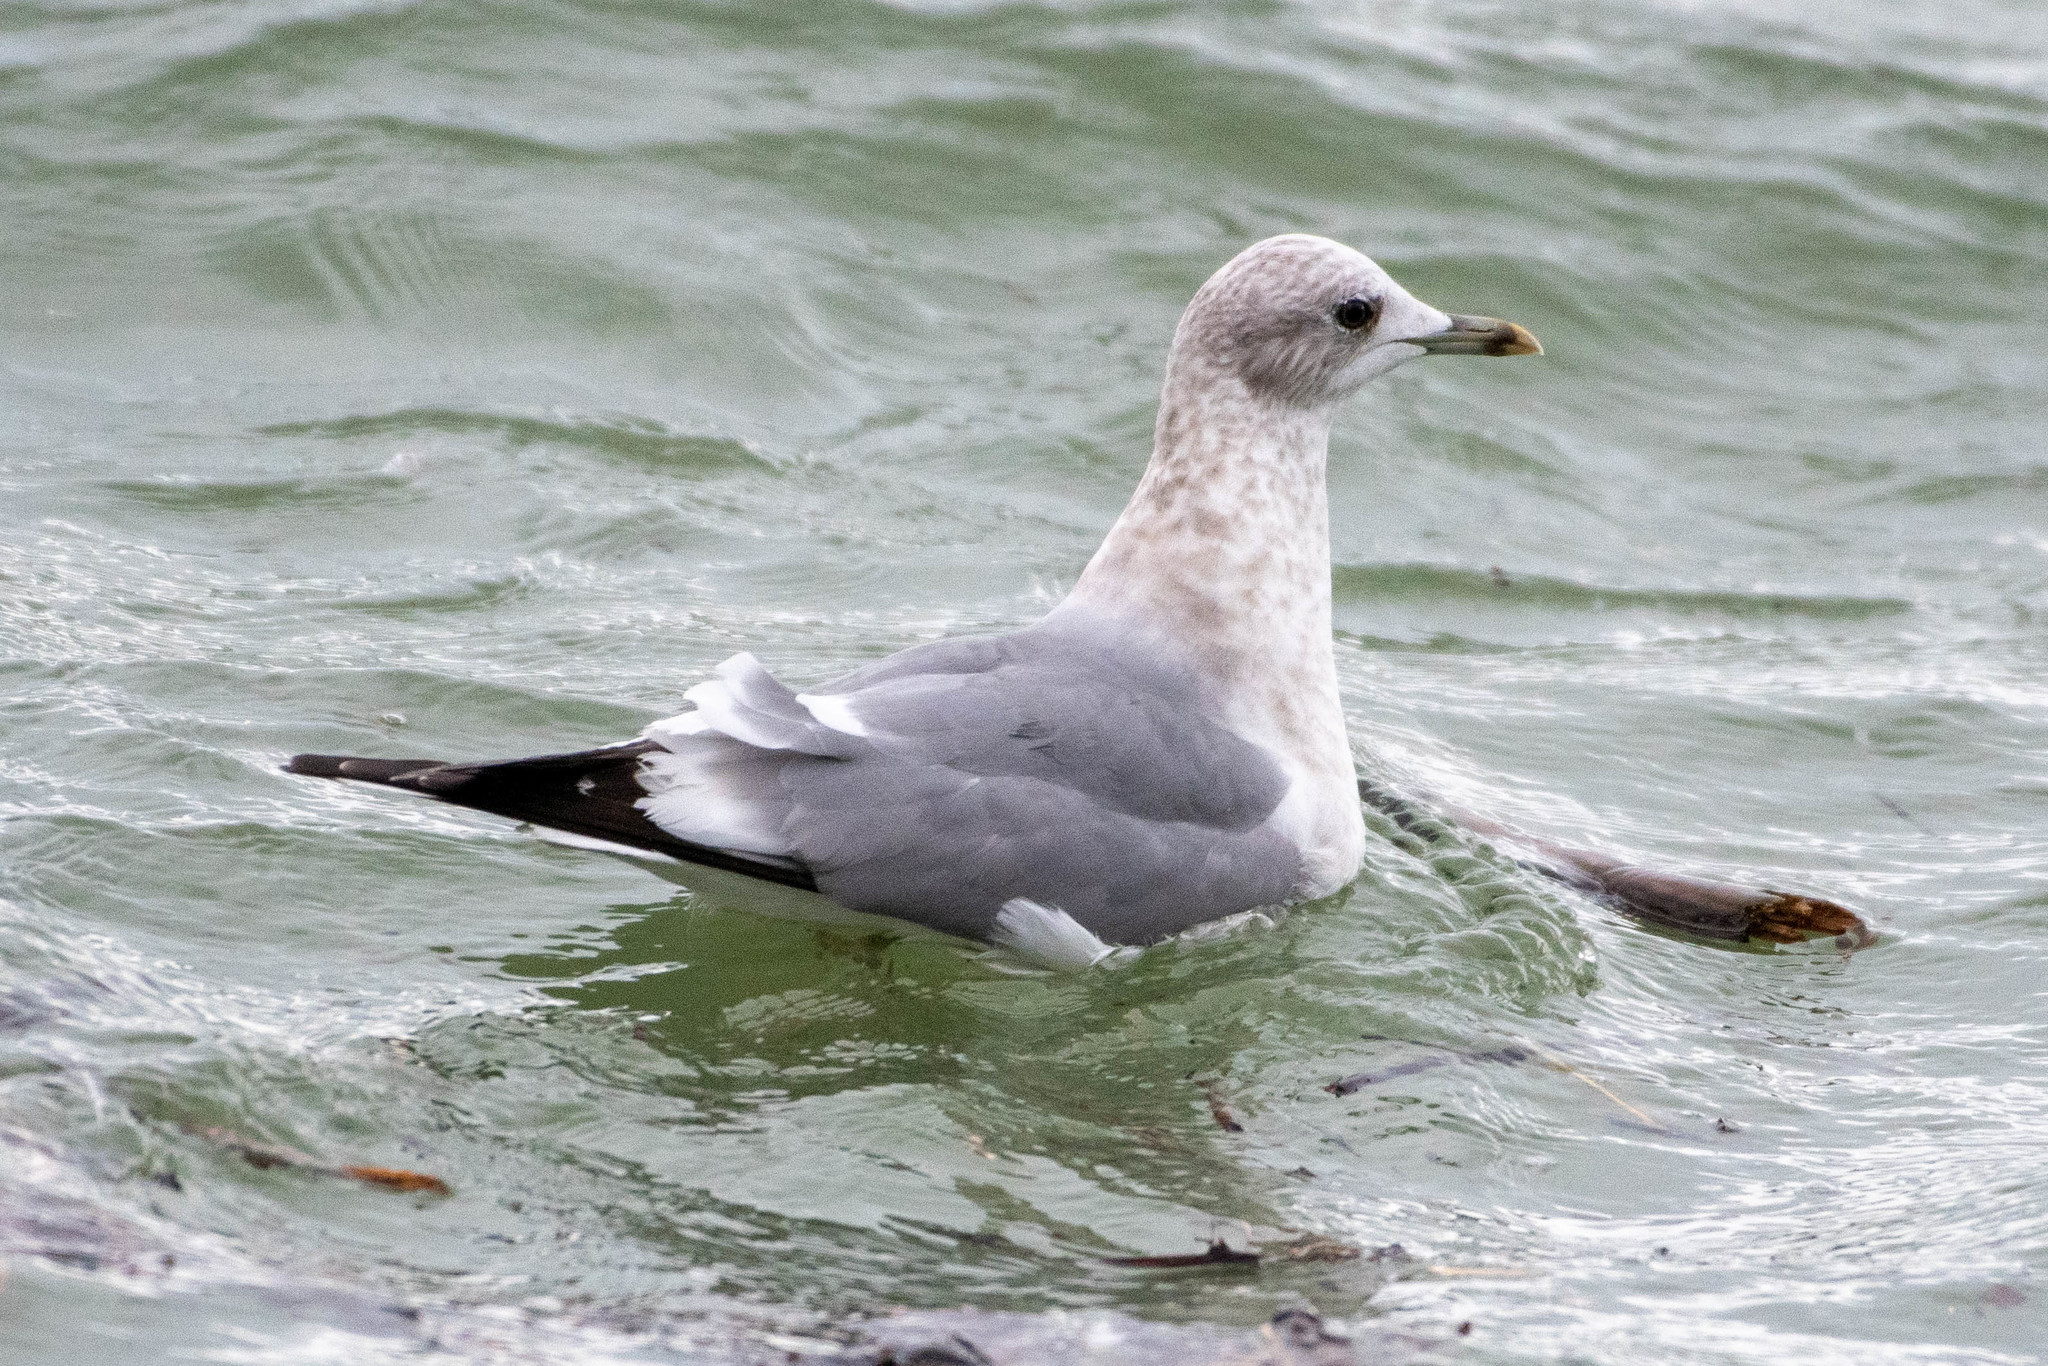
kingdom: Animalia
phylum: Chordata
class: Aves
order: Charadriiformes
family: Laridae
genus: Larus
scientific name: Larus brachyrhynchus
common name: Short-billed gull
